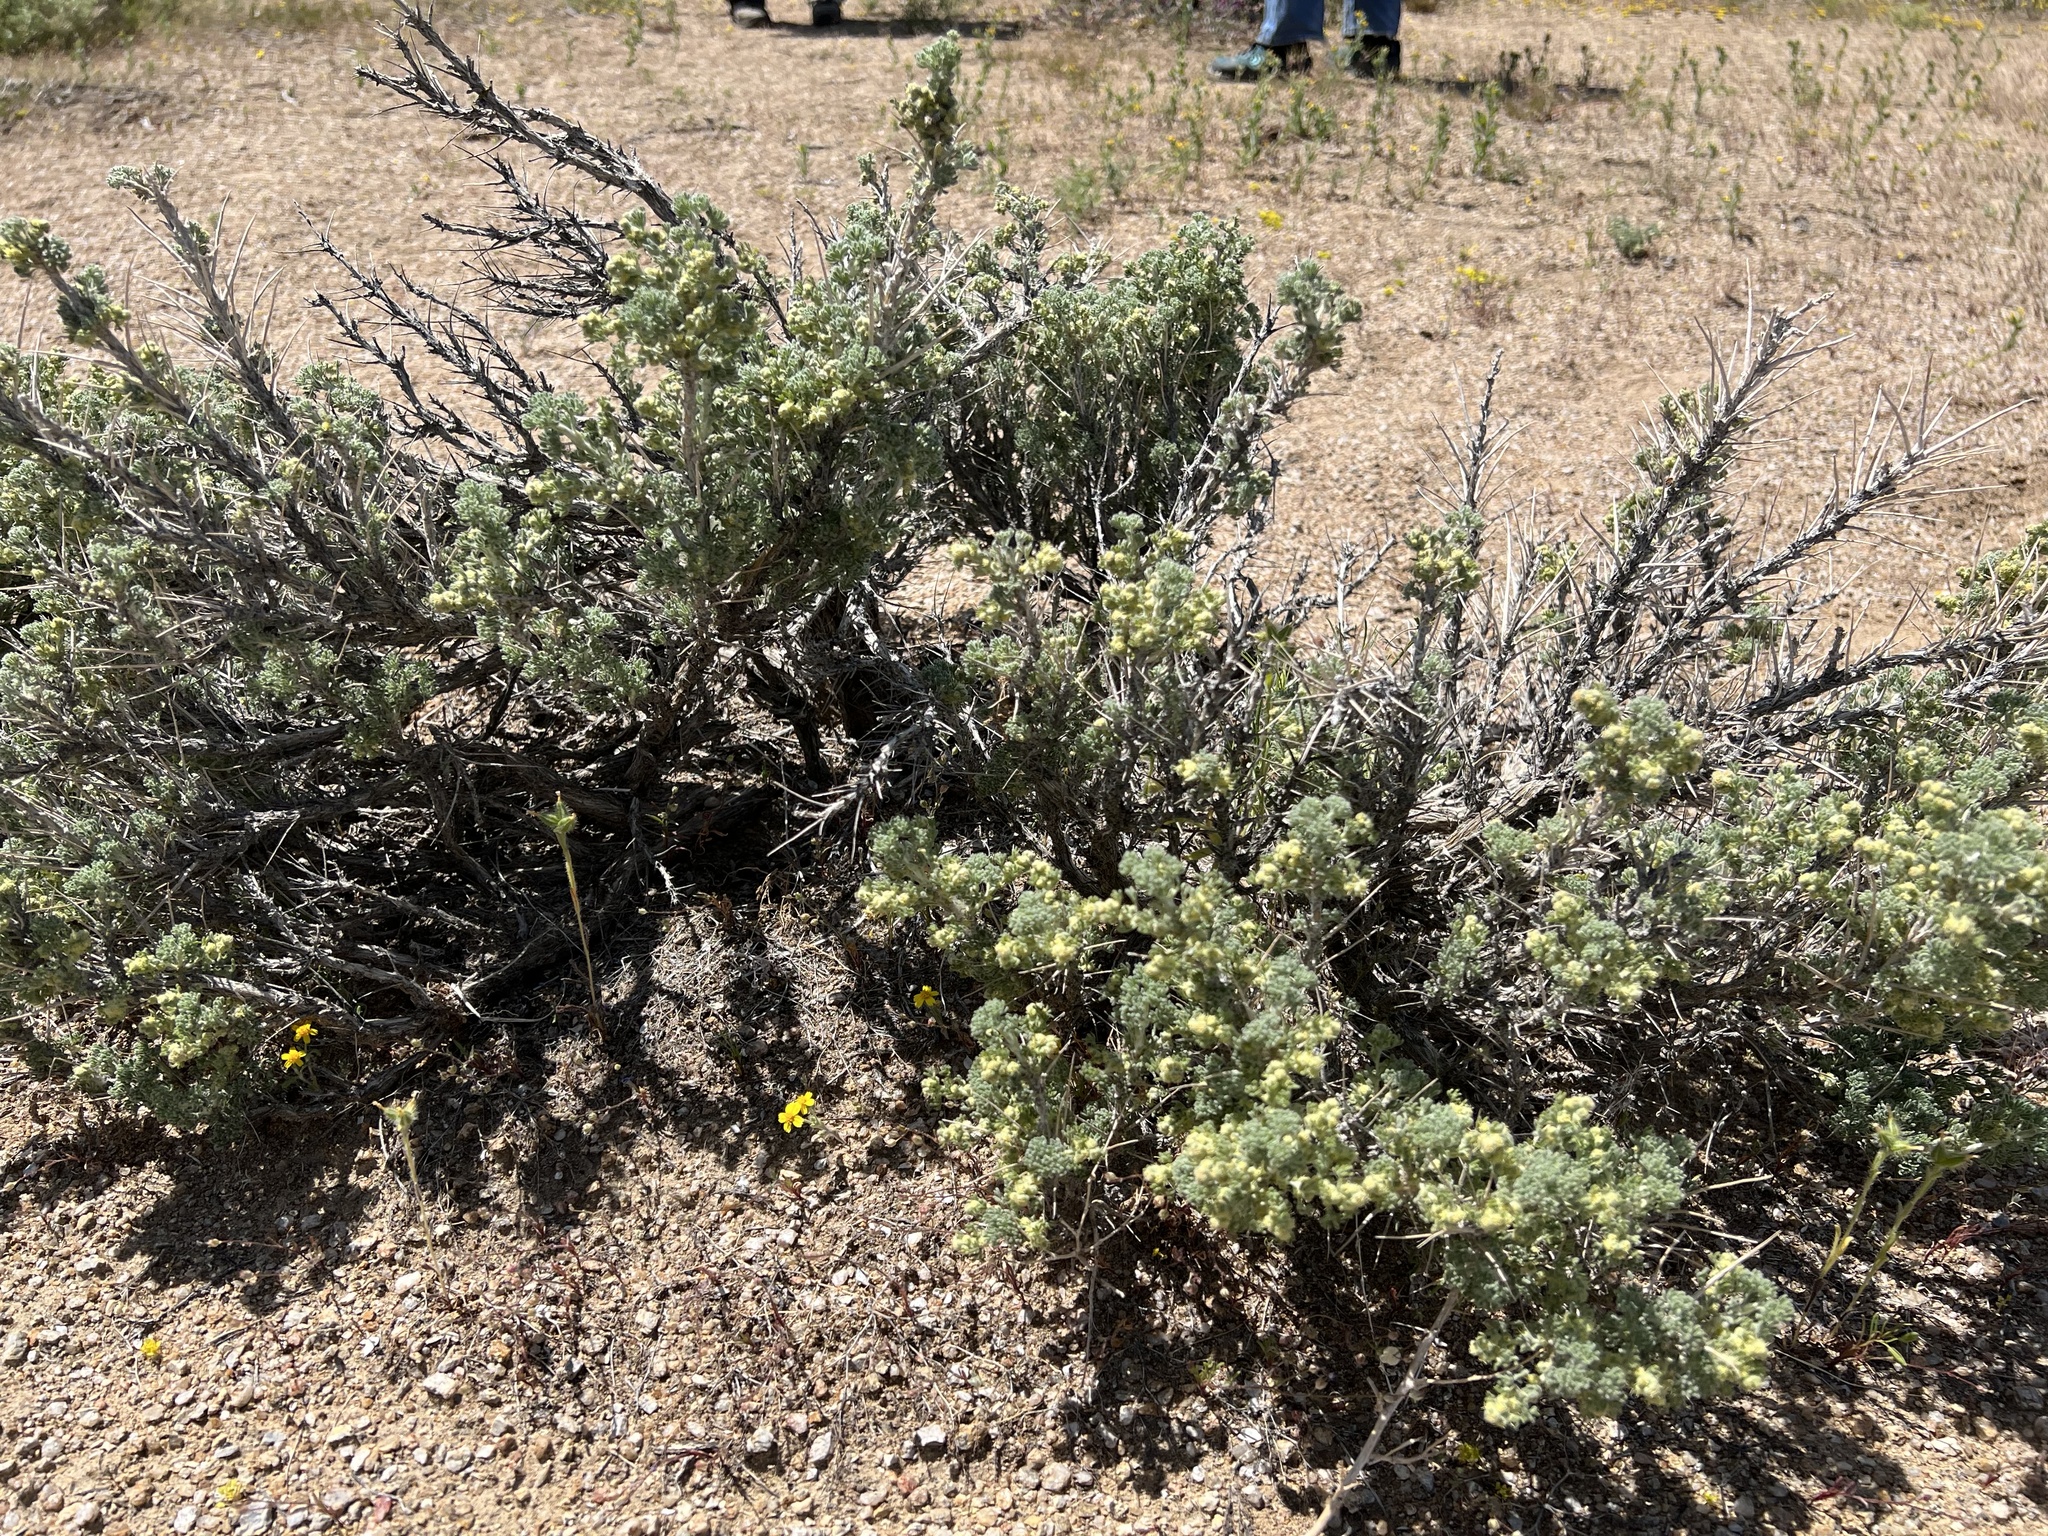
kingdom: Plantae
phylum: Tracheophyta
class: Magnoliopsida
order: Asterales
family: Asteraceae
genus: Artemisia
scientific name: Artemisia spinescens
